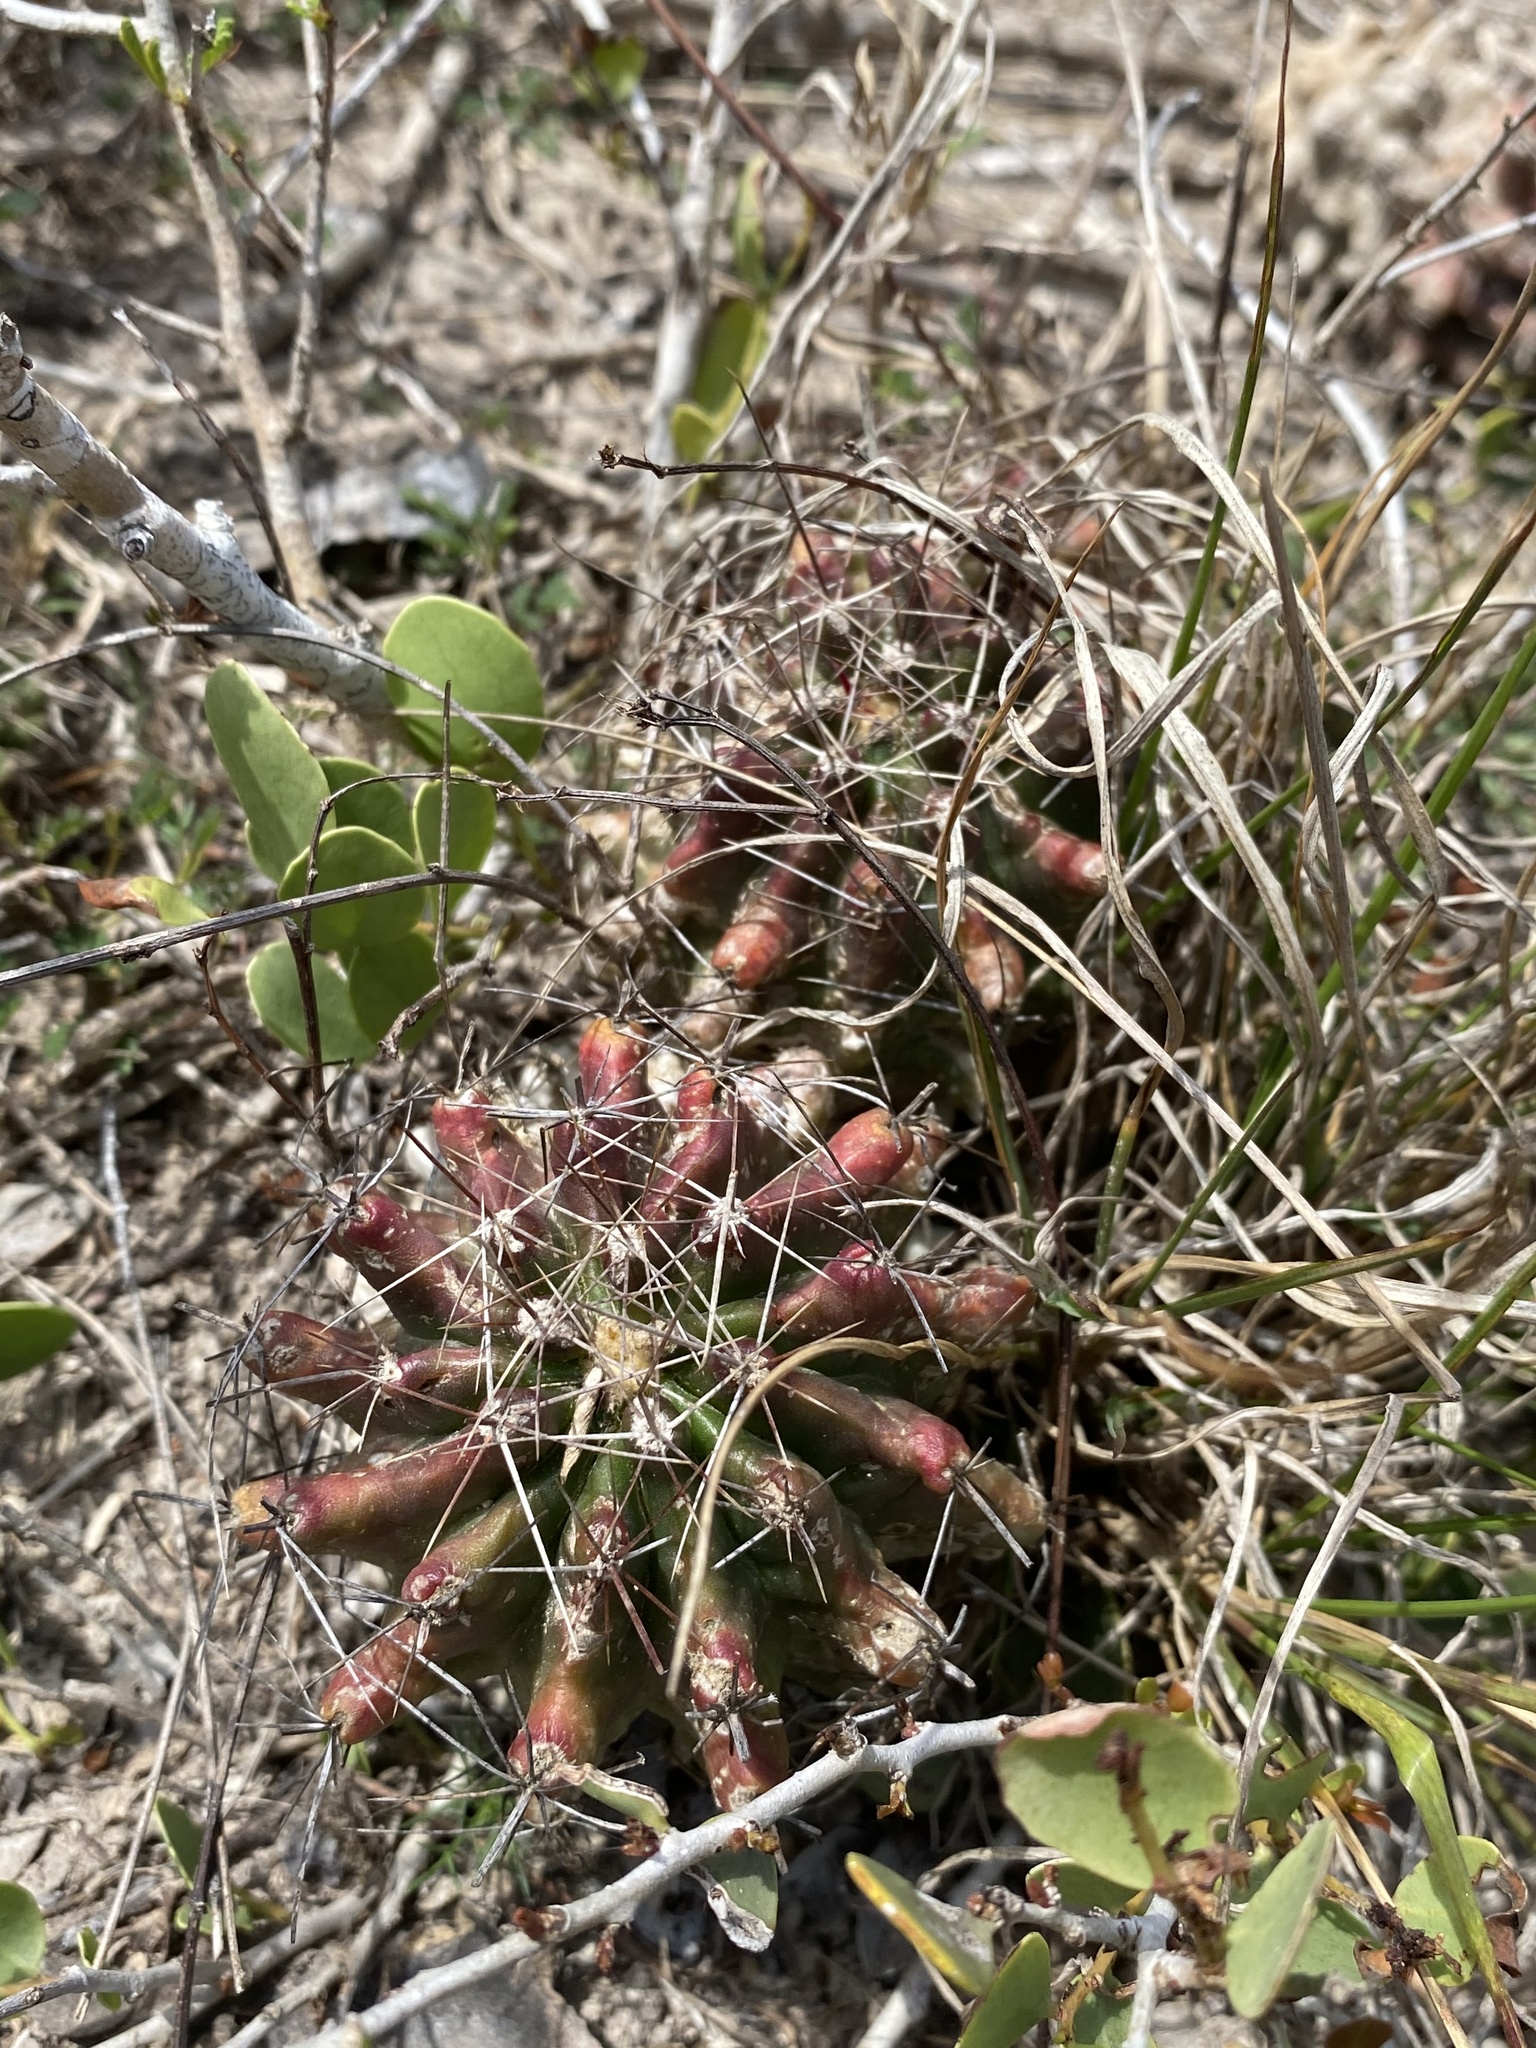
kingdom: Plantae
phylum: Tracheophyta
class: Magnoliopsida
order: Caryophyllales
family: Cactaceae
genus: Bisnaga
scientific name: Bisnaga hamatacantha
